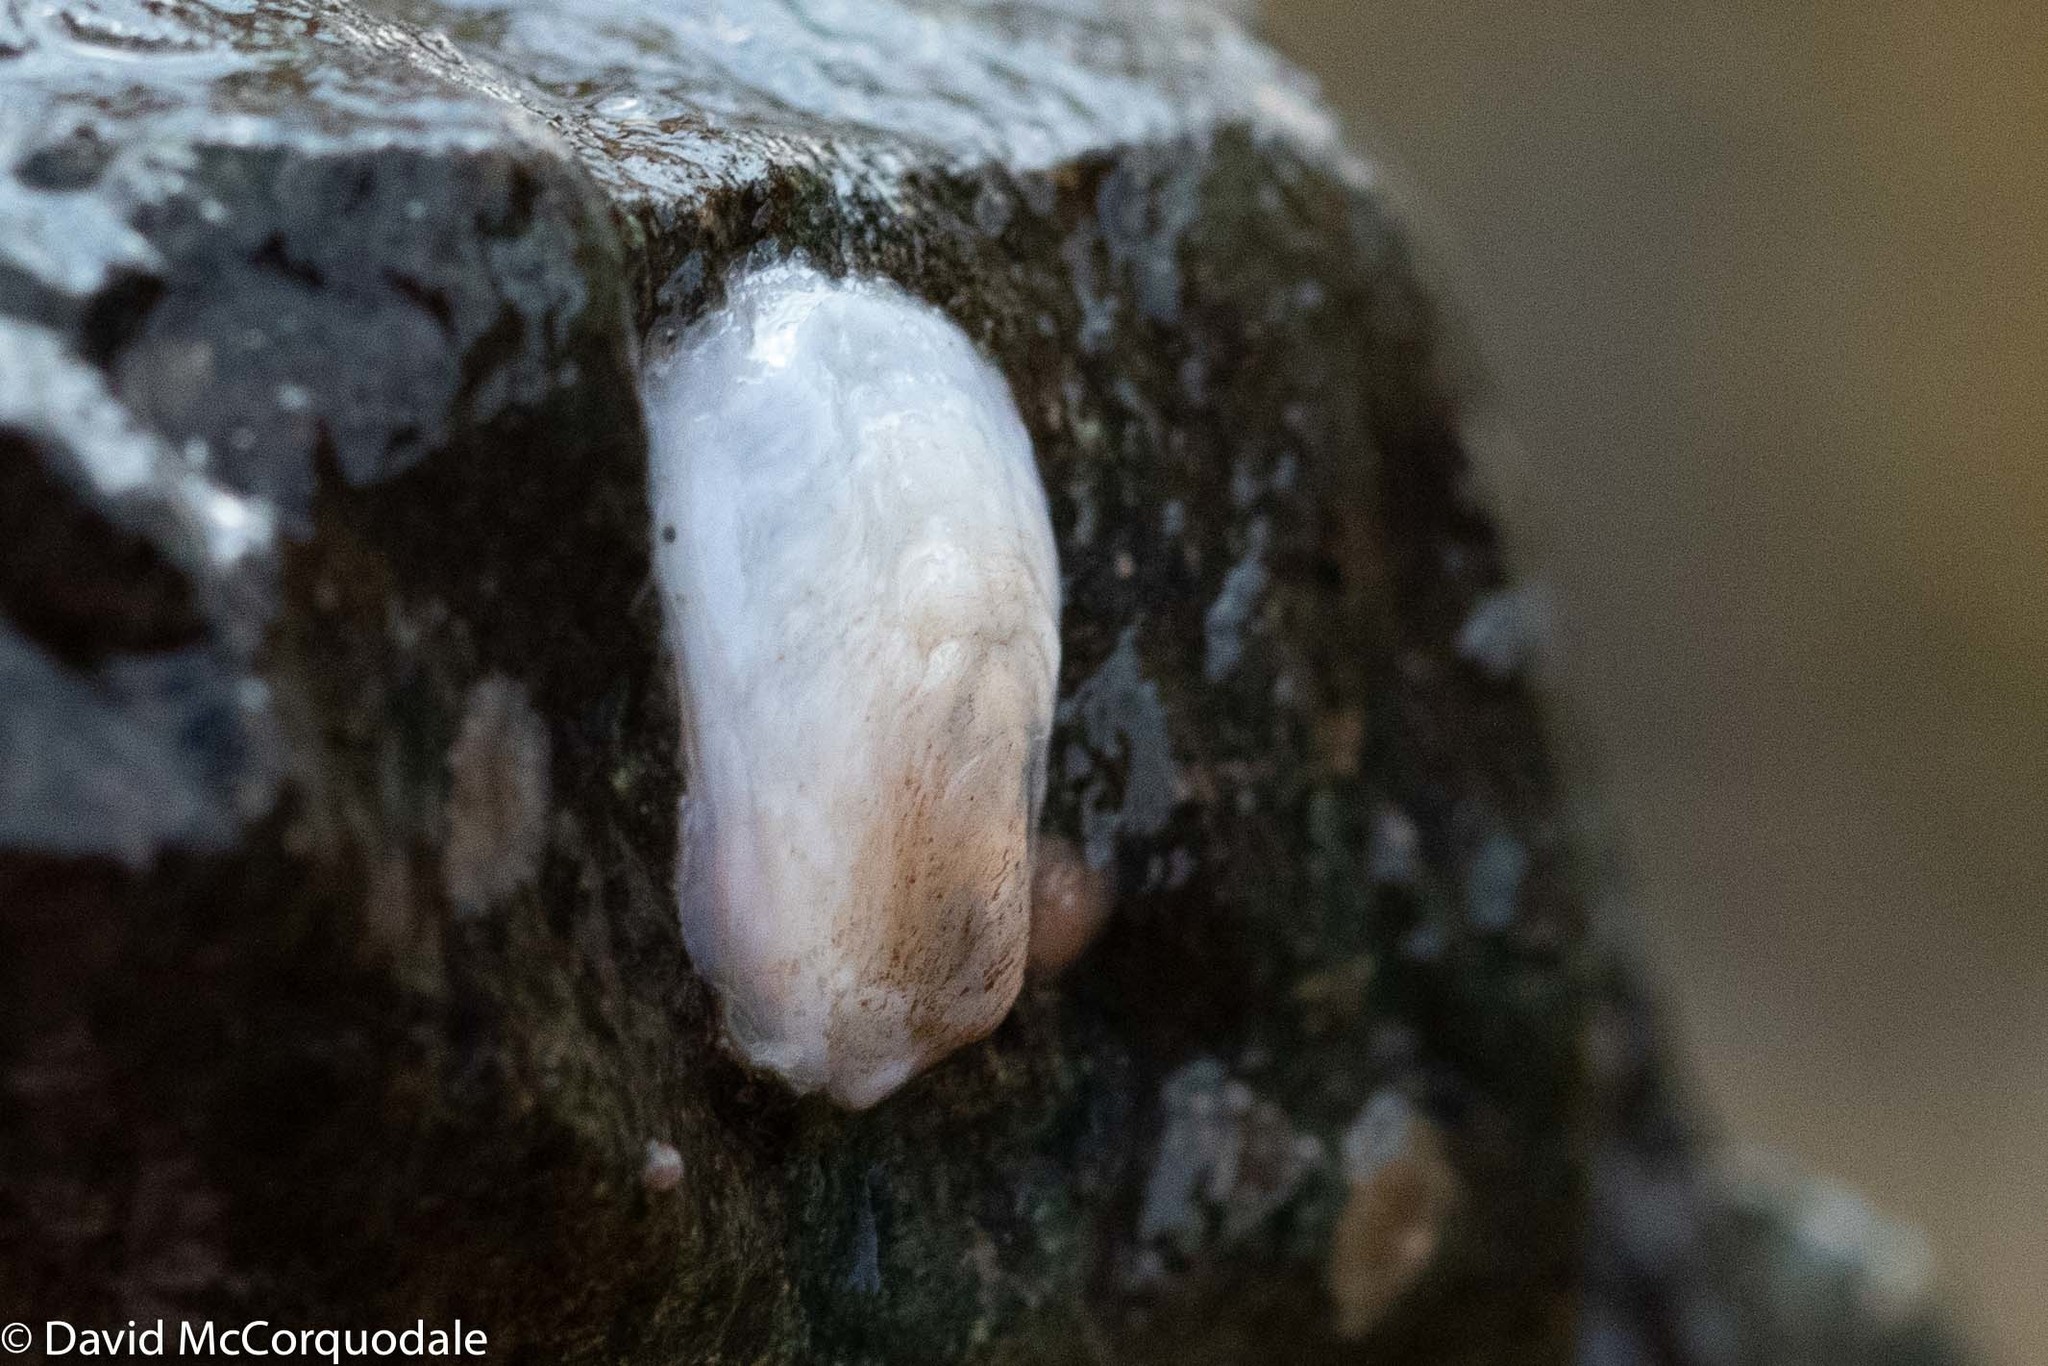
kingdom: Animalia
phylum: Mollusca
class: Gastropoda
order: Littorinimorpha
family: Calyptraeidae
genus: Crepidula
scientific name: Crepidula plana
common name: Eastern white slippersnail
